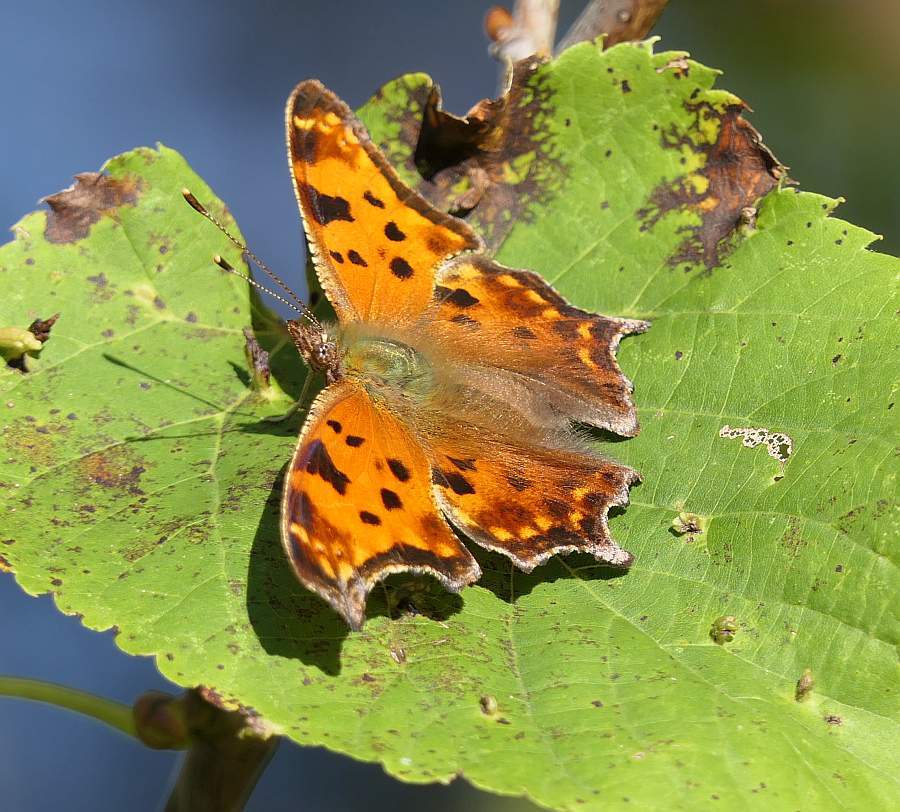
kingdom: Animalia
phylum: Arthropoda
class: Insecta
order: Lepidoptera
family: Nymphalidae
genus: Polygonia
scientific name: Polygonia comma
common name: Eastern comma
